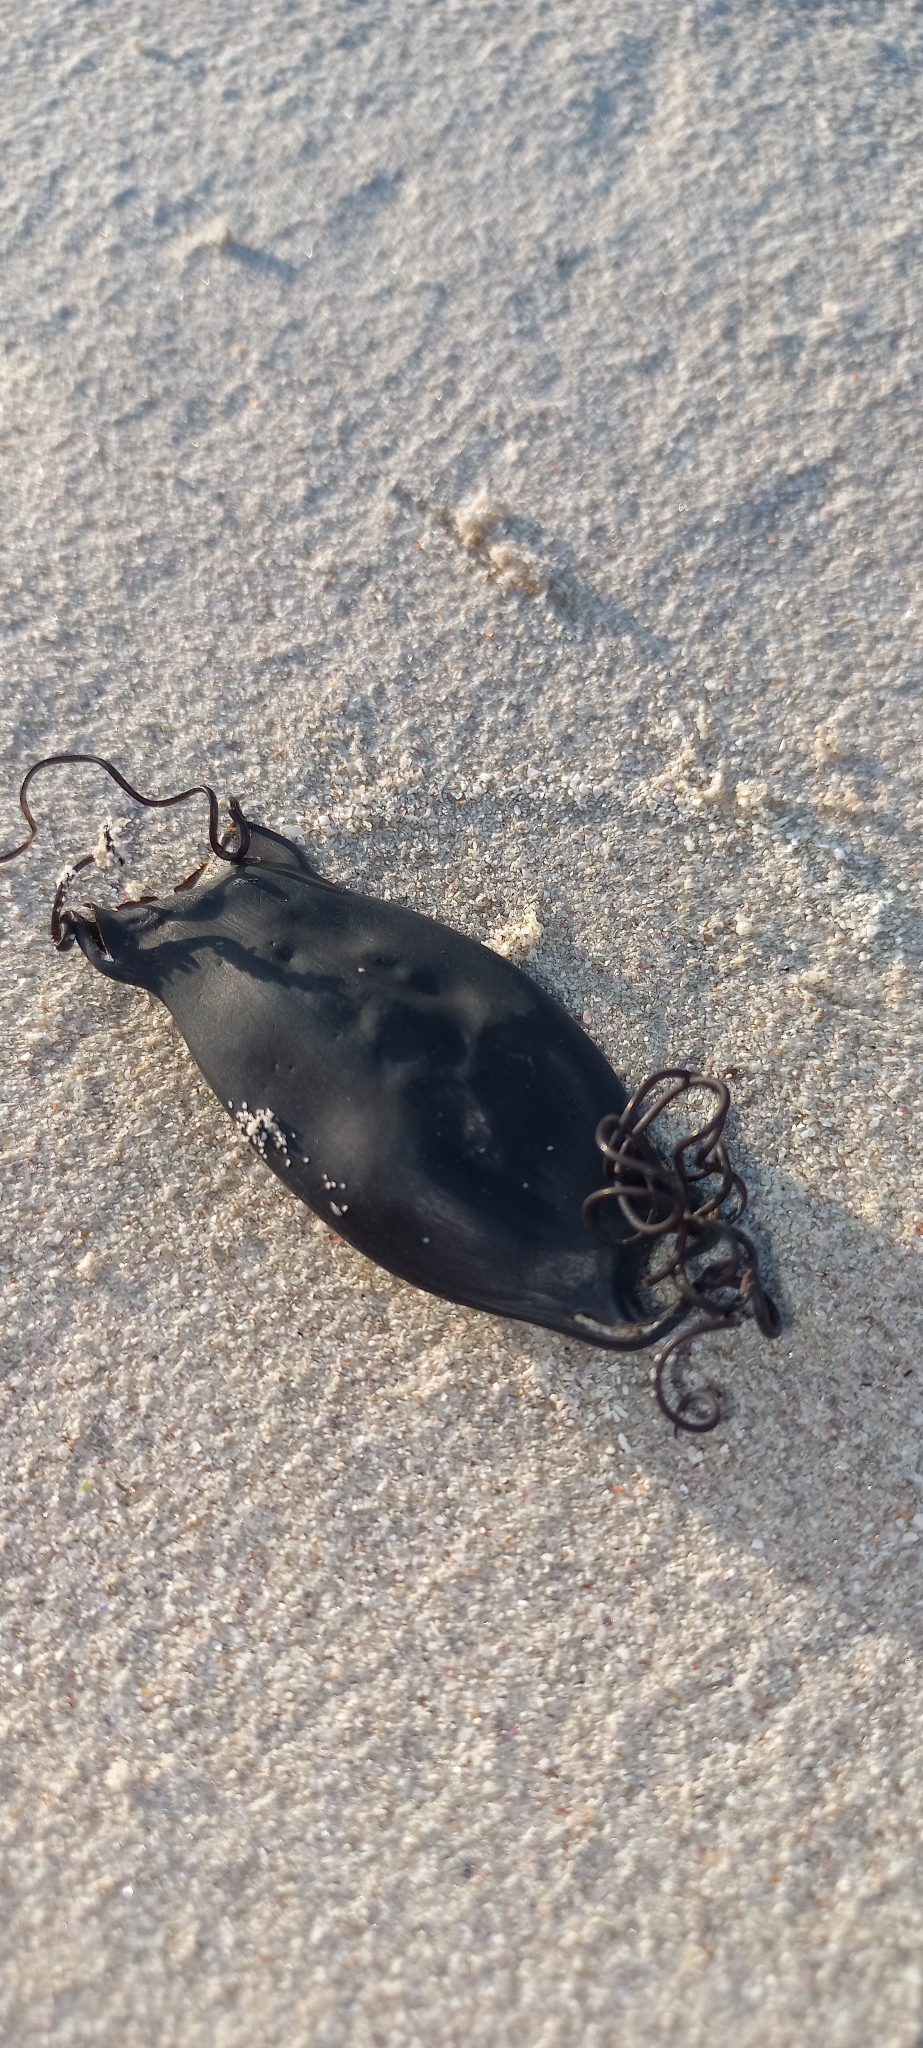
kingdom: Animalia
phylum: Chordata
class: Elasmobranchii
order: Carcharhiniformes
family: Scyliorhinidae
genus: Haploblepharus
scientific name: Haploblepharus pictus
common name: Dark shyshark
